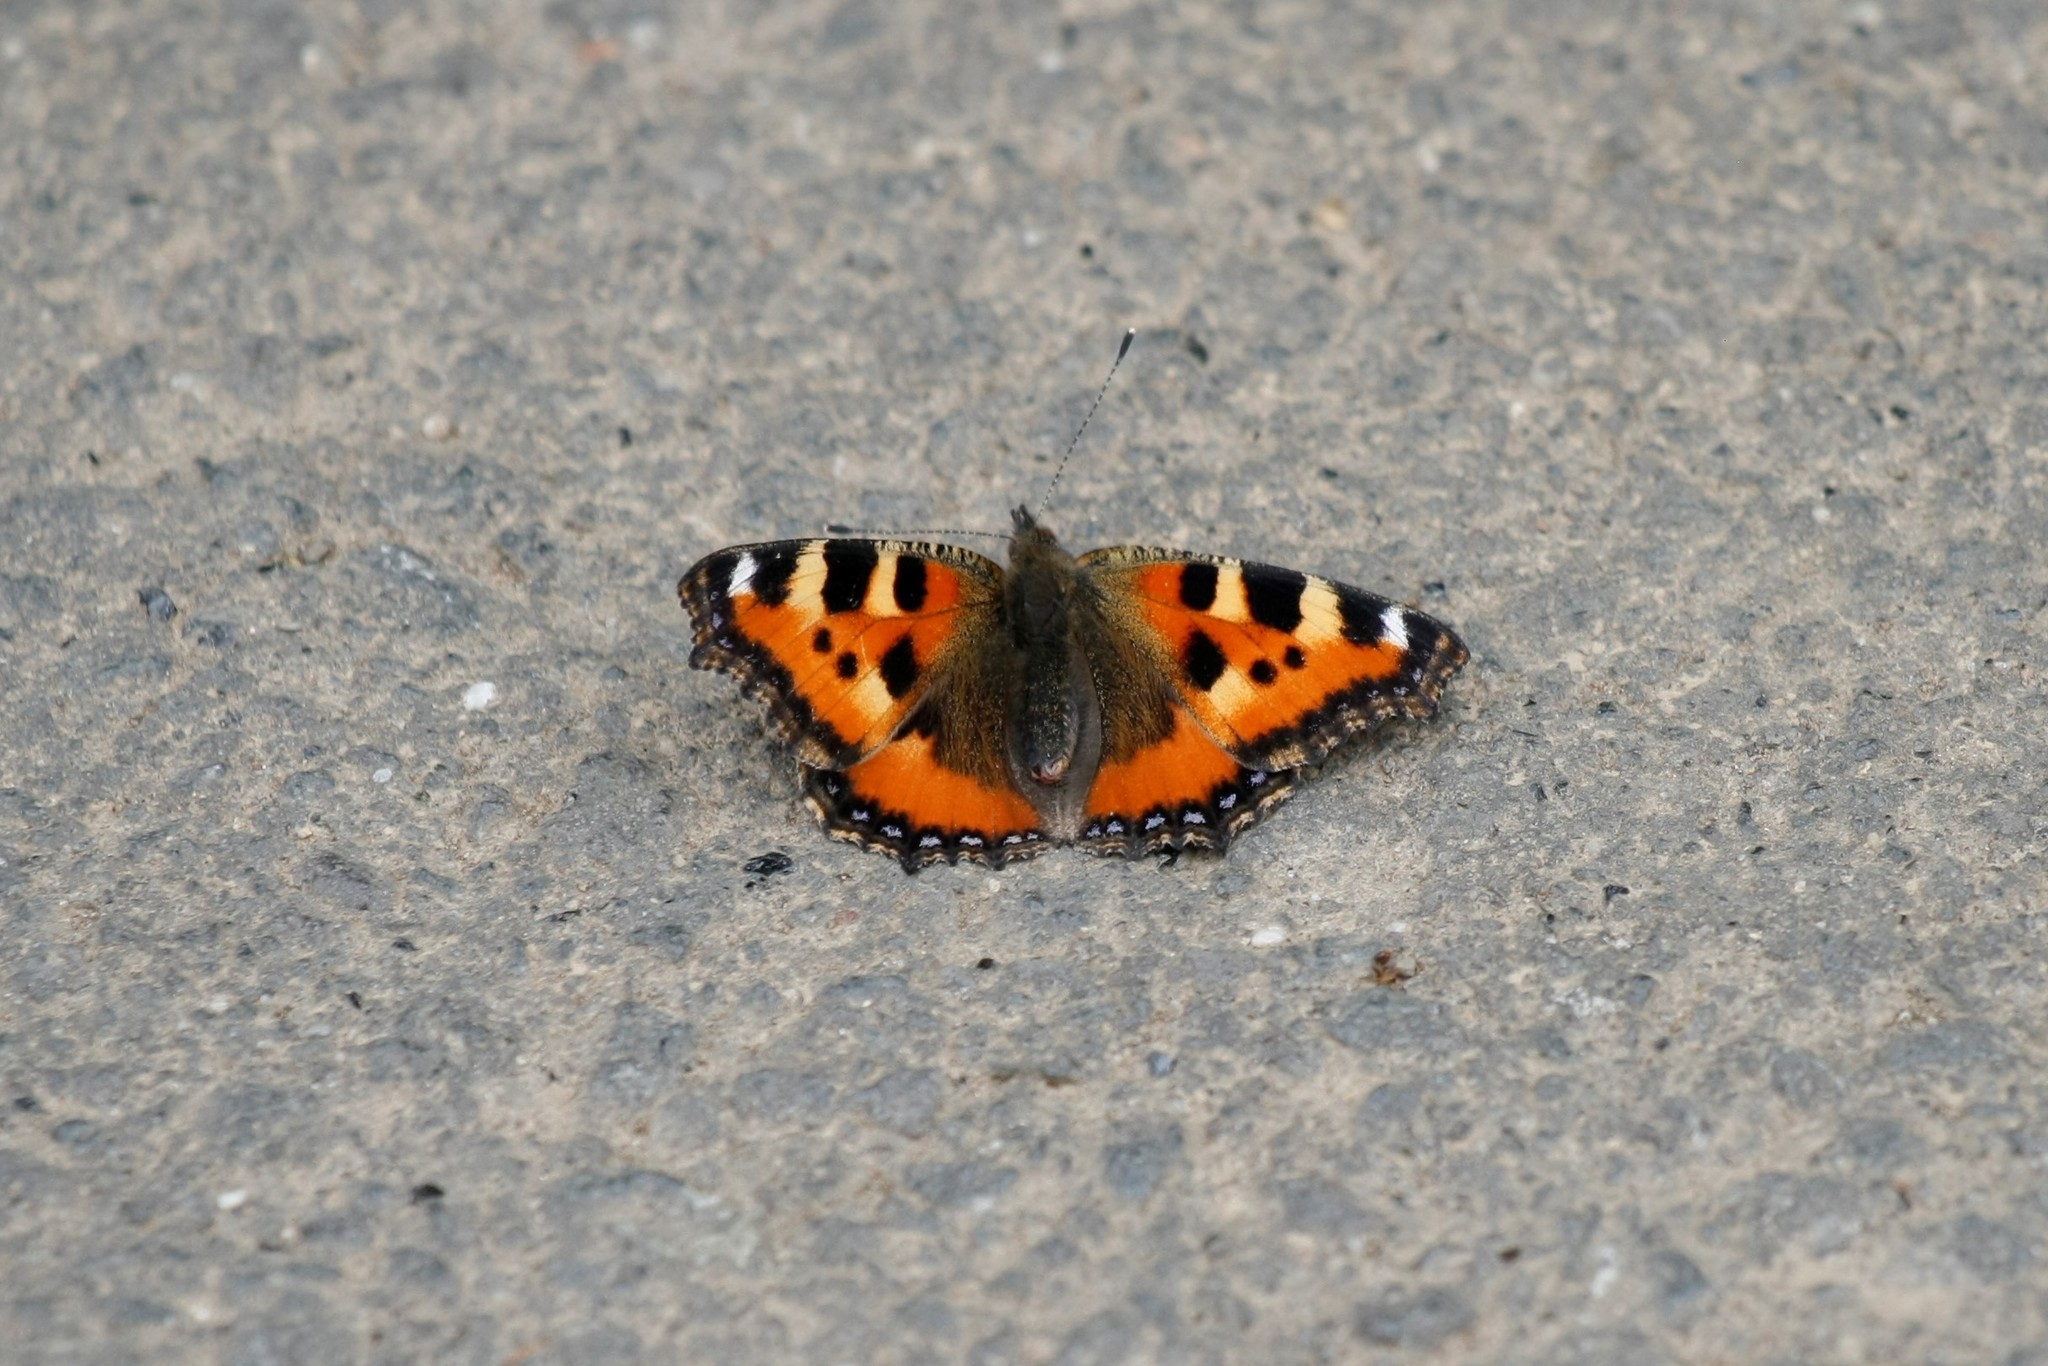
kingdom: Animalia
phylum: Arthropoda
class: Insecta
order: Lepidoptera
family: Nymphalidae
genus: Aglais
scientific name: Aglais urticae
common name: Small tortoiseshell
